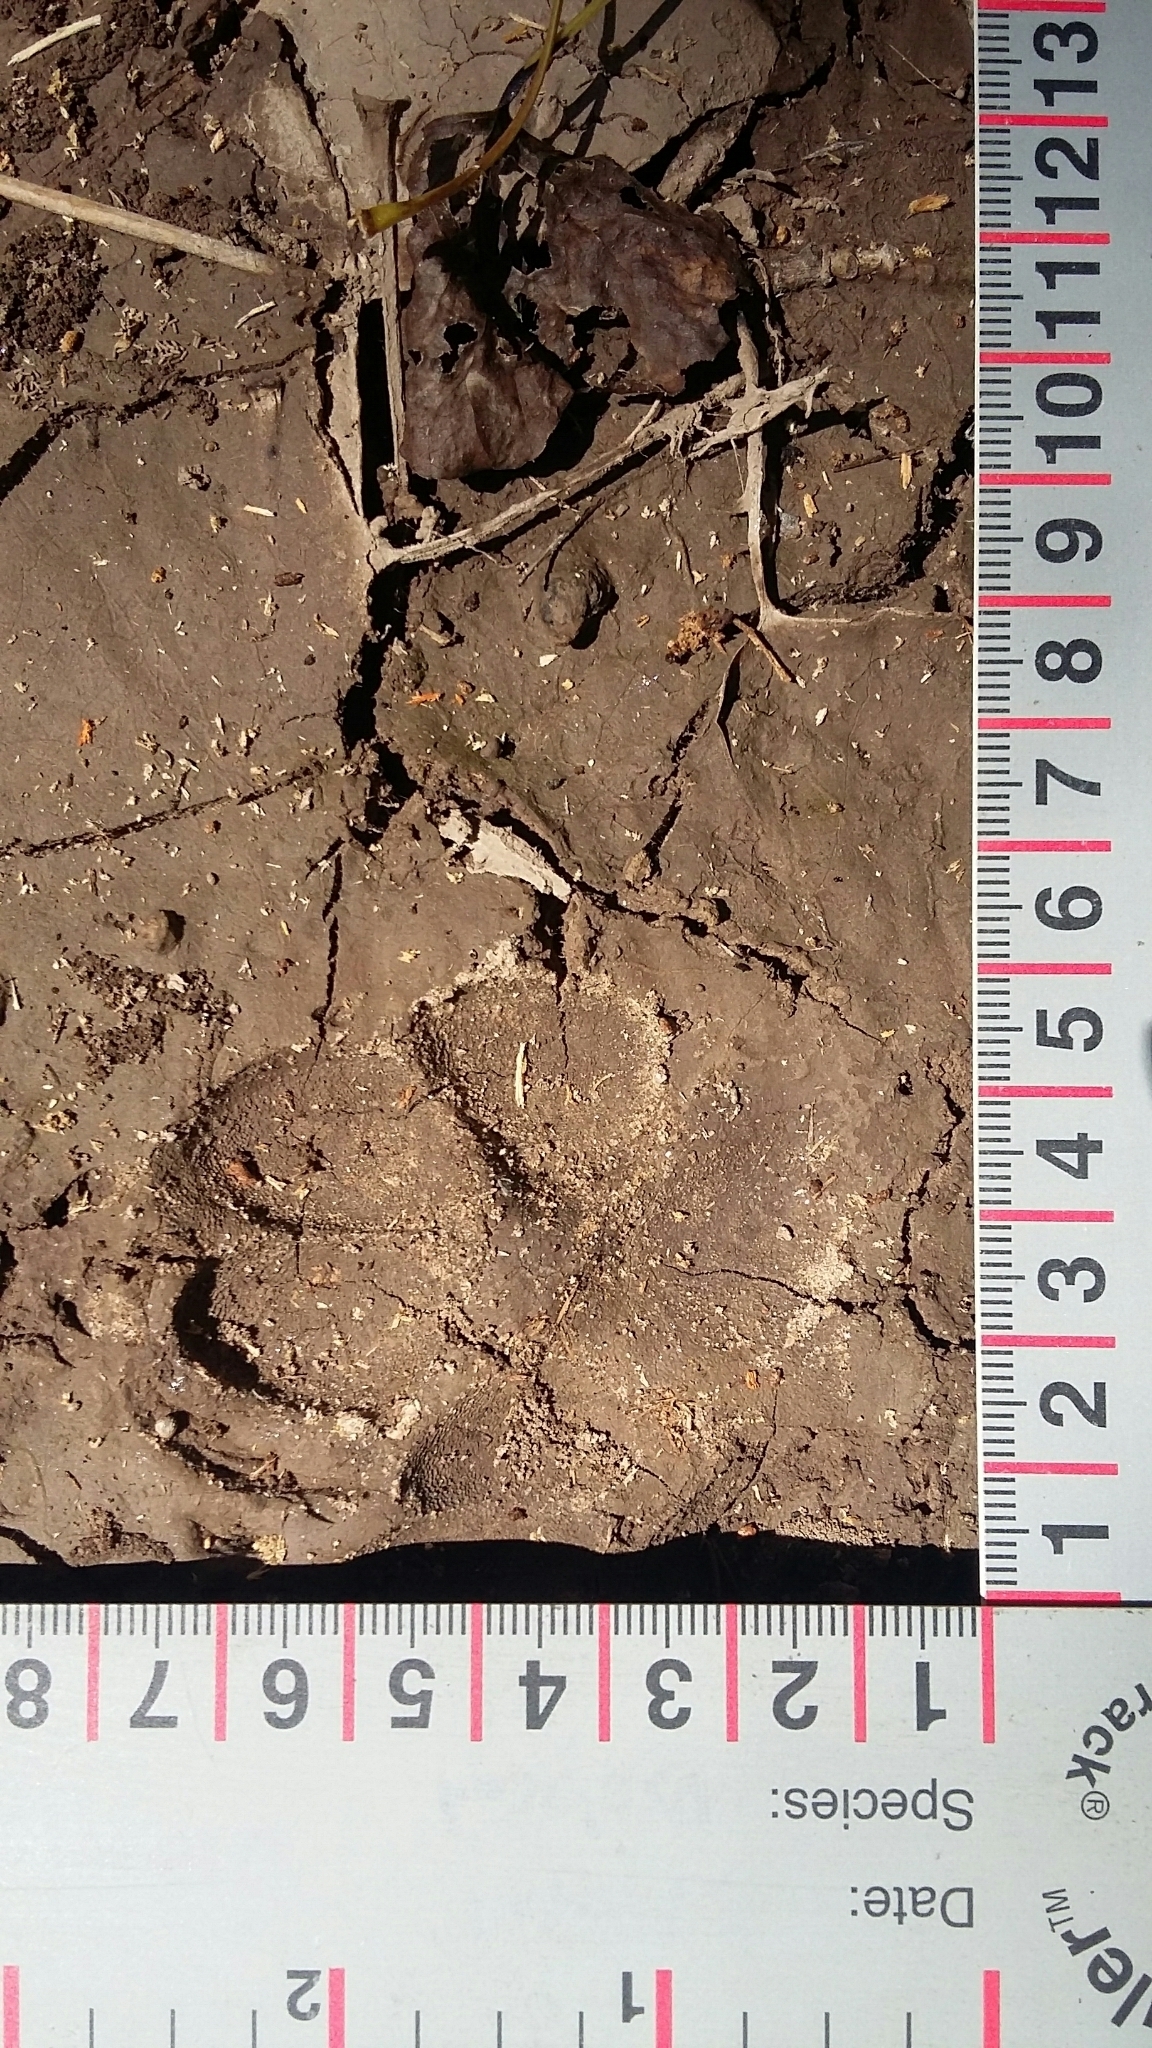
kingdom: Animalia
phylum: Chordata
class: Mammalia
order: Carnivora
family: Canidae
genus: Canis
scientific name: Canis latrans
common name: Coyote
